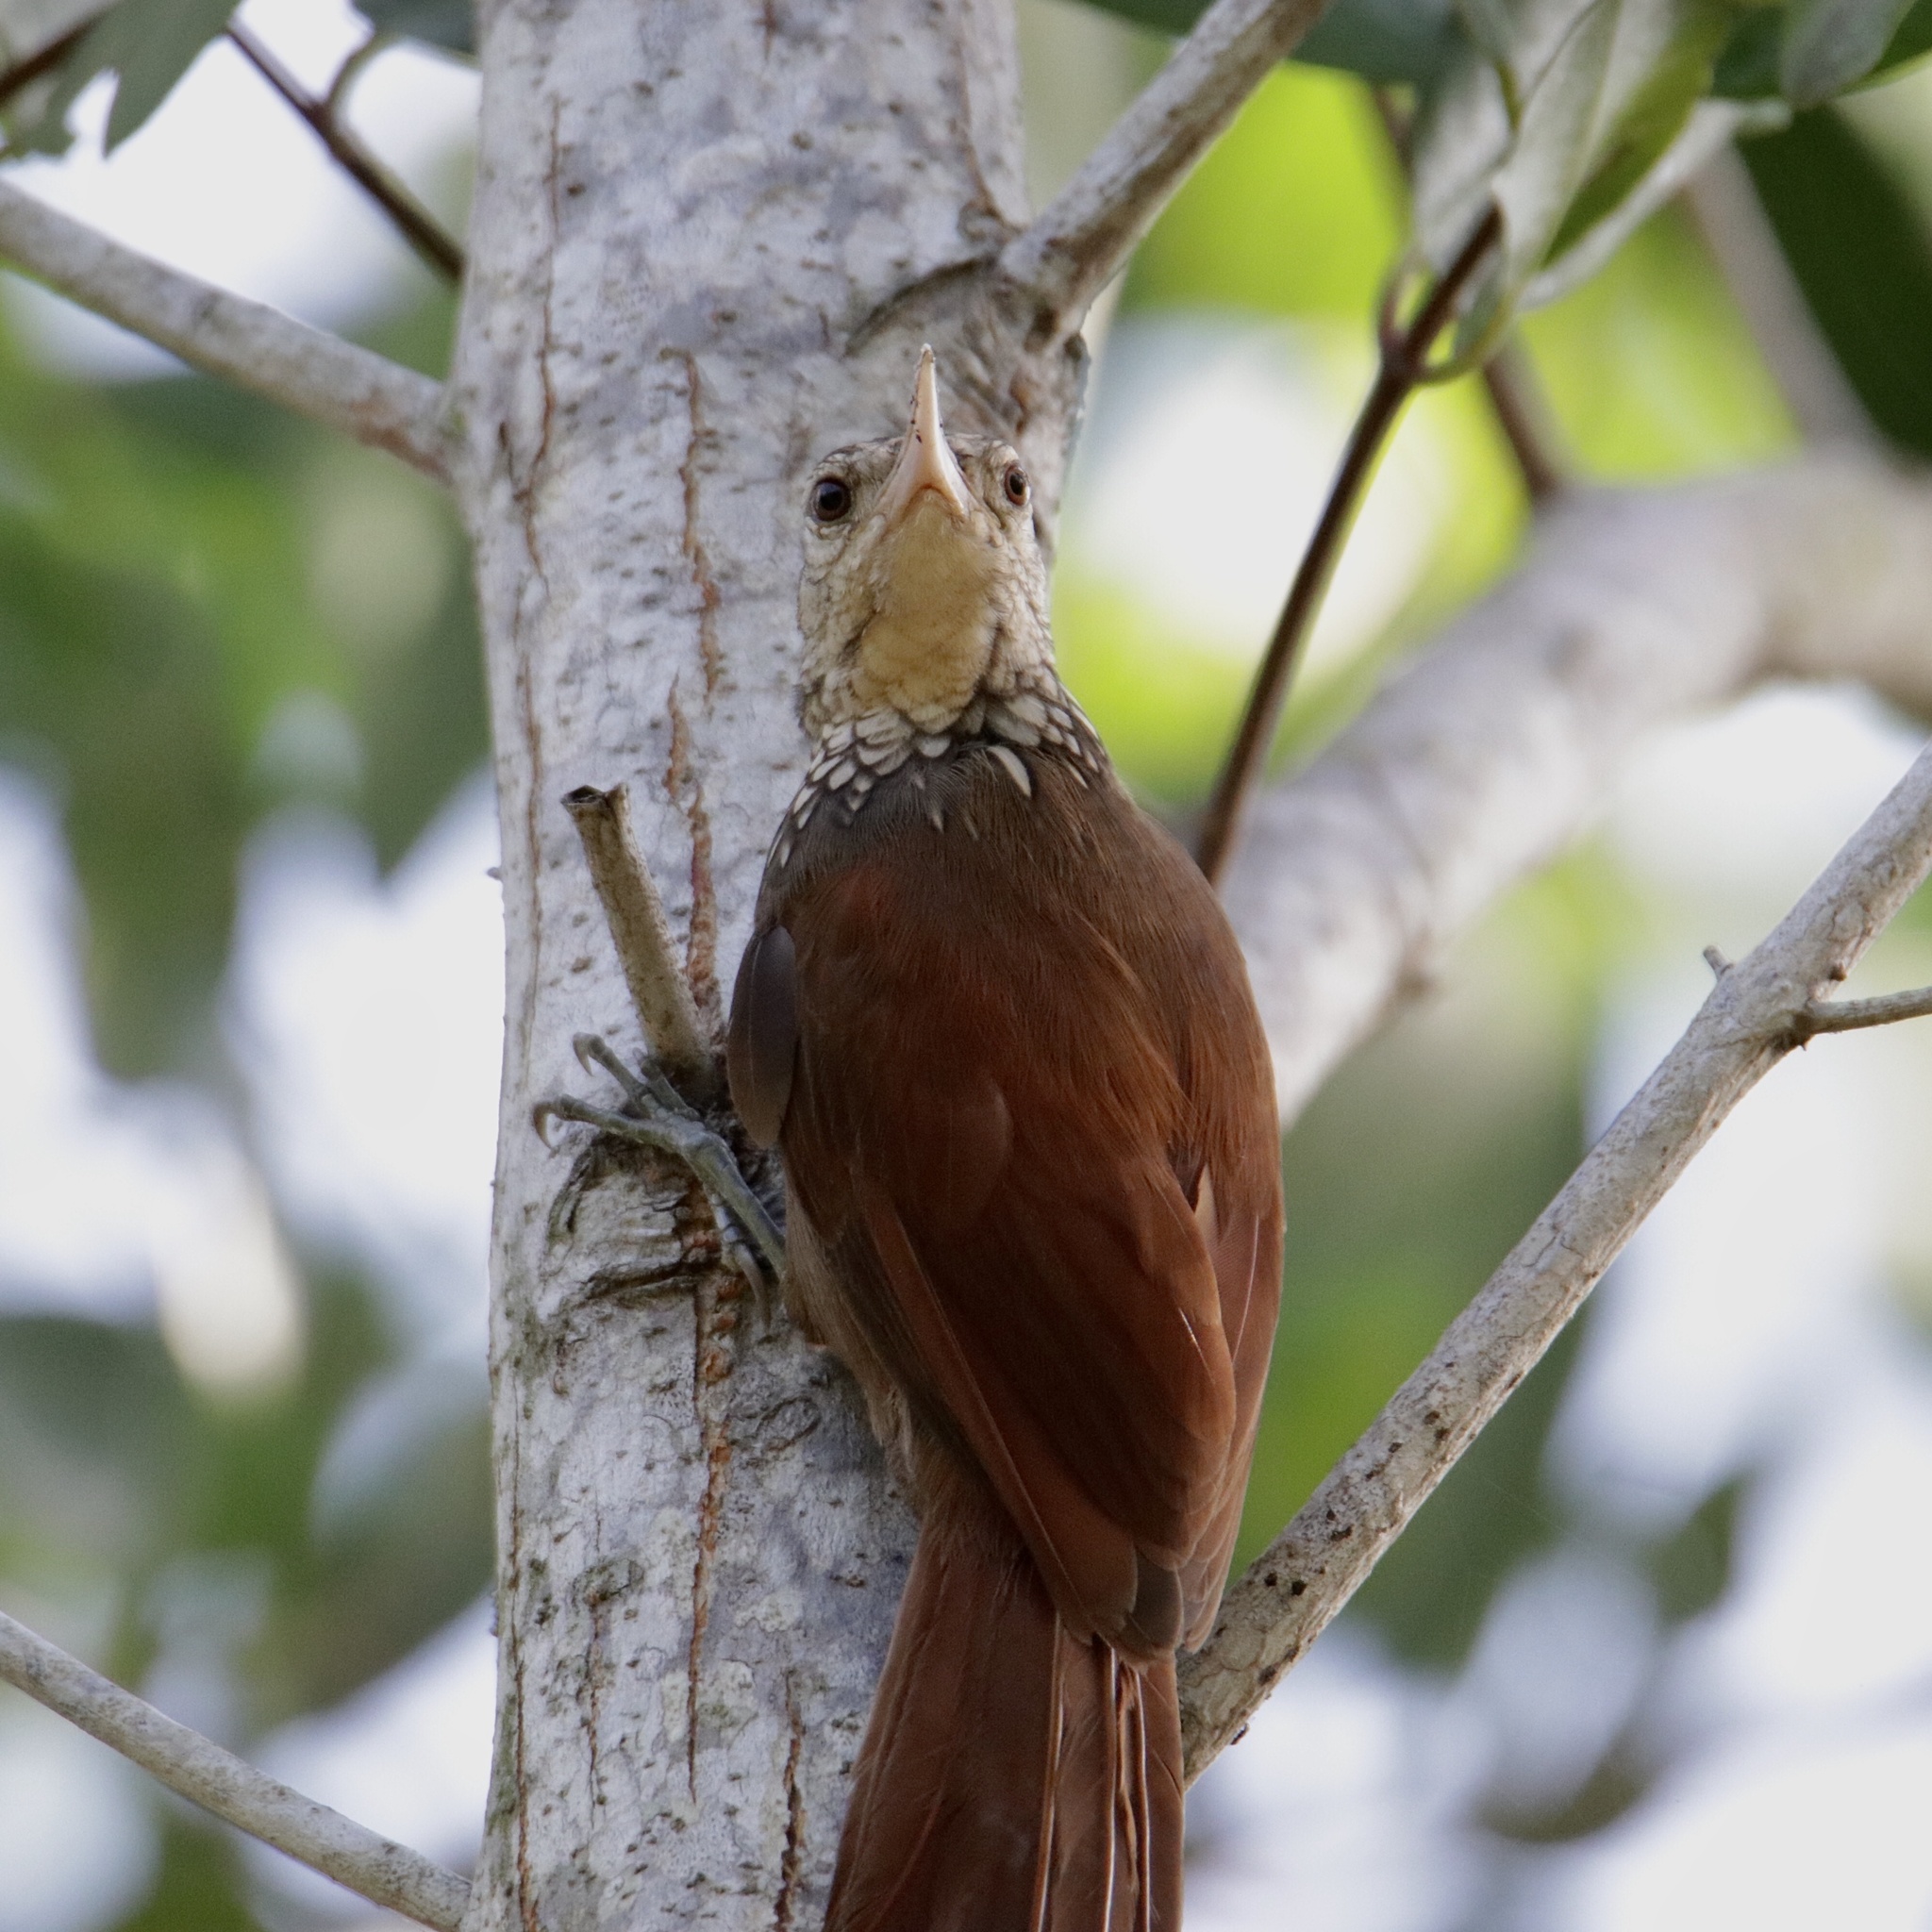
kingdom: Animalia
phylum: Chordata
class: Aves
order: Passeriformes
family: Furnariidae
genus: Xiphorhynchus
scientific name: Xiphorhynchus picus
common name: Straight-billed woodcreeper
